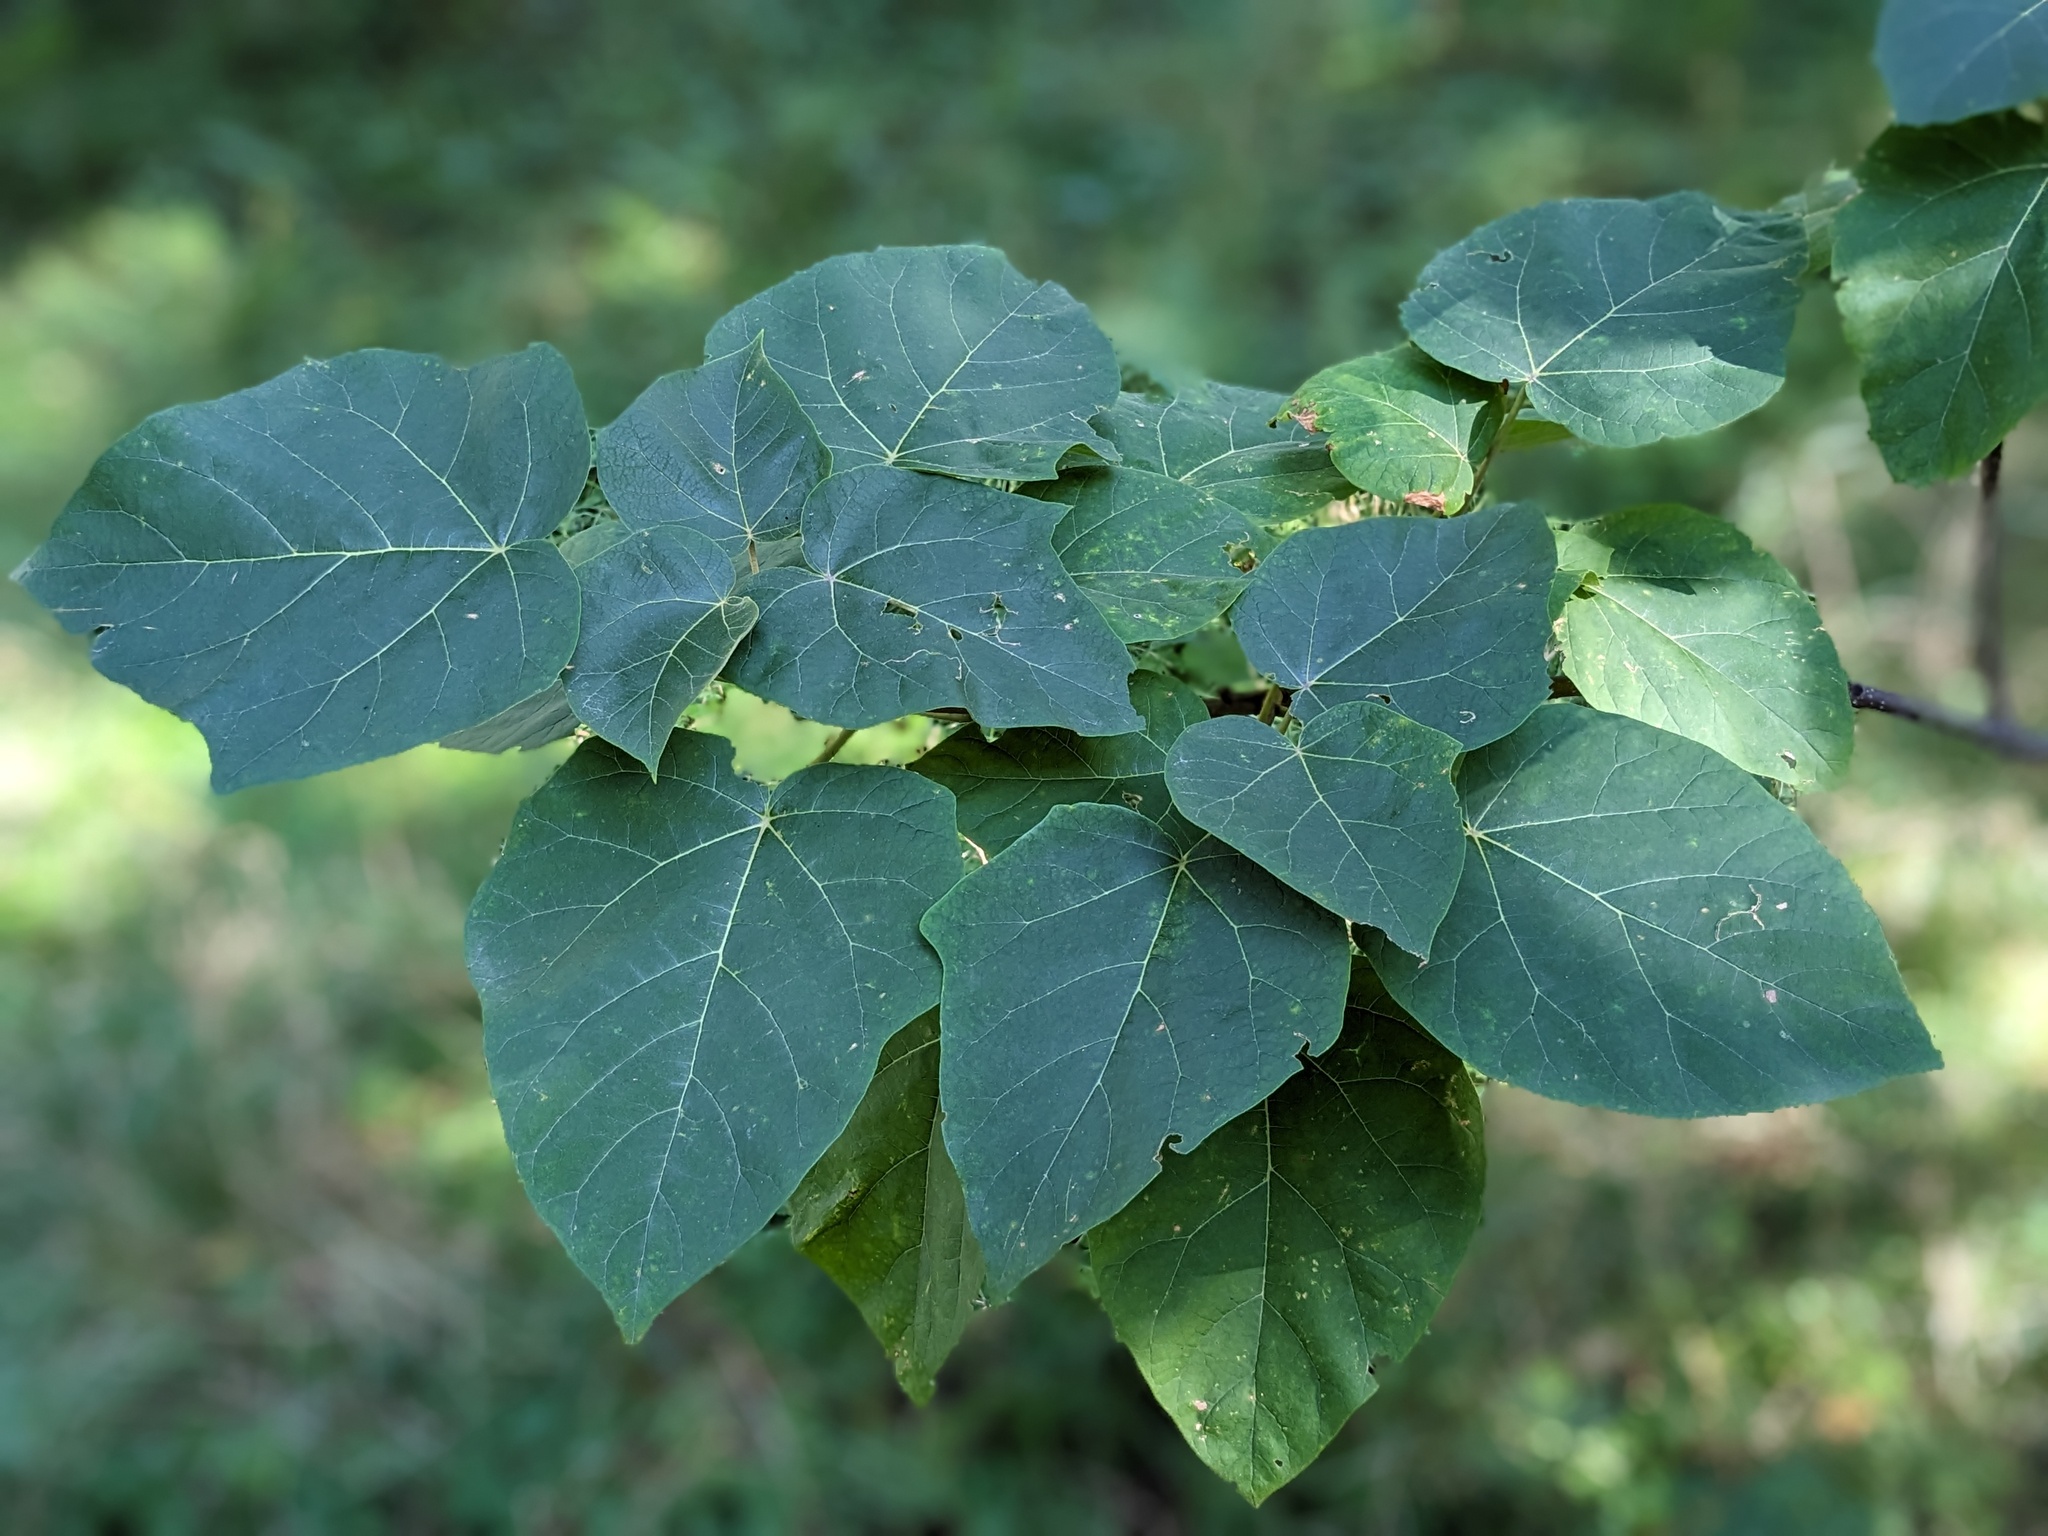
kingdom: Plantae
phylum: Tracheophyta
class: Magnoliopsida
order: Lamiales
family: Paulowniaceae
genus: Paulownia
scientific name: Paulownia tomentosa
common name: Foxglove-tree
